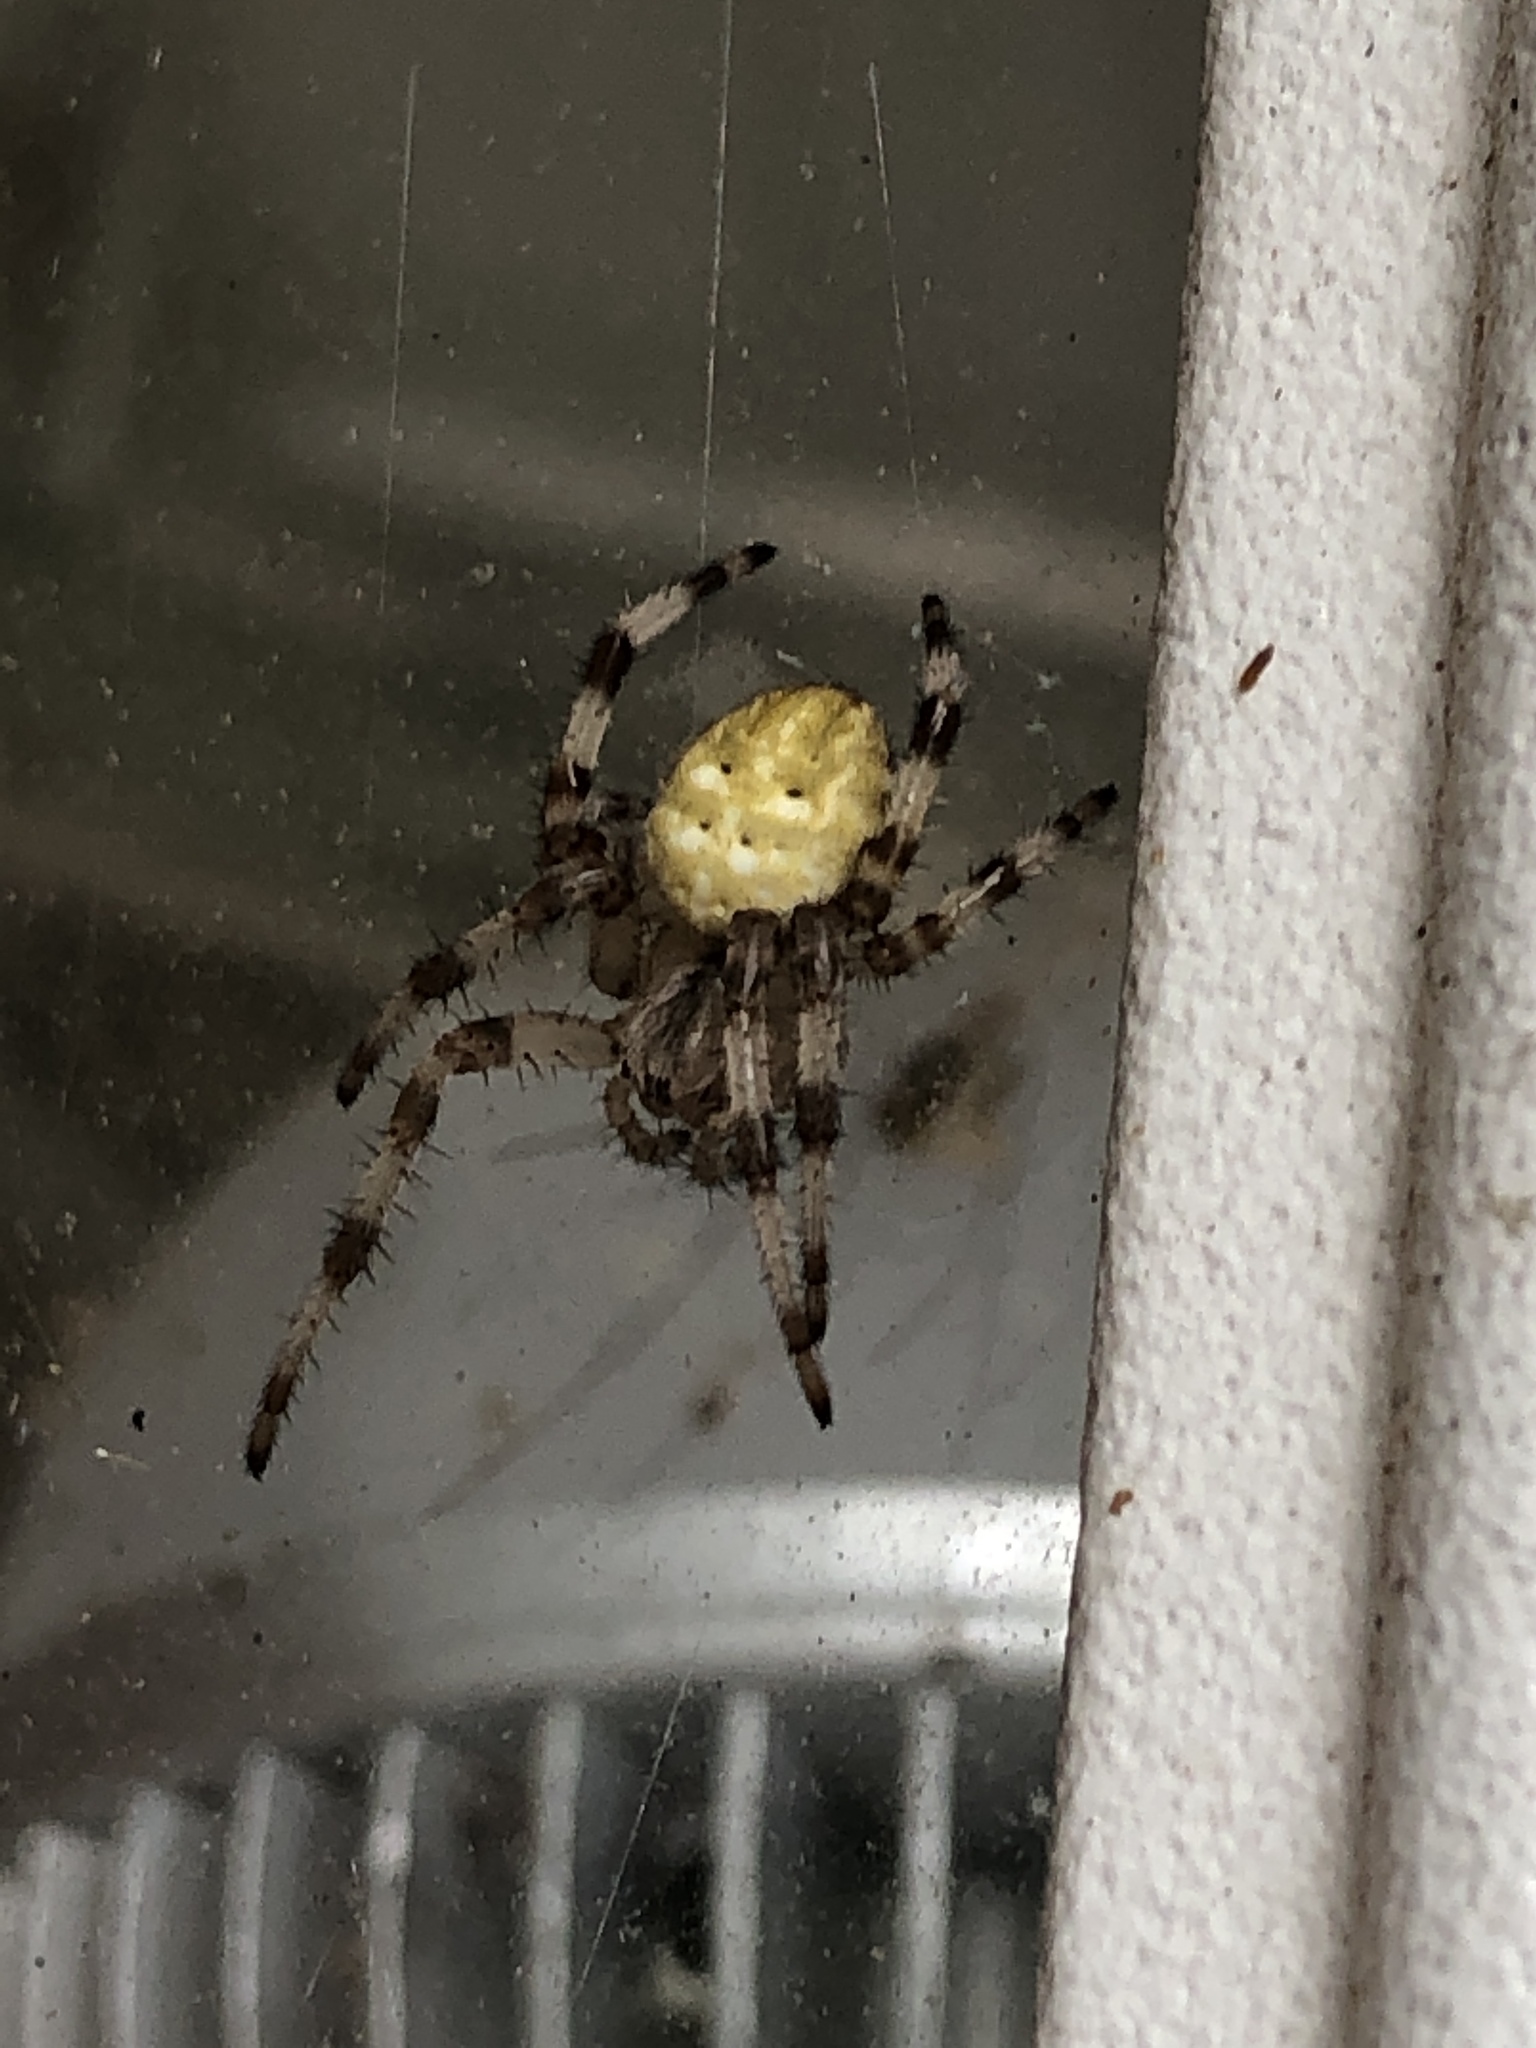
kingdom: Animalia
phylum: Arthropoda
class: Arachnida
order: Araneae
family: Araneidae
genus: Araneus
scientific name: Araneus quadratus
